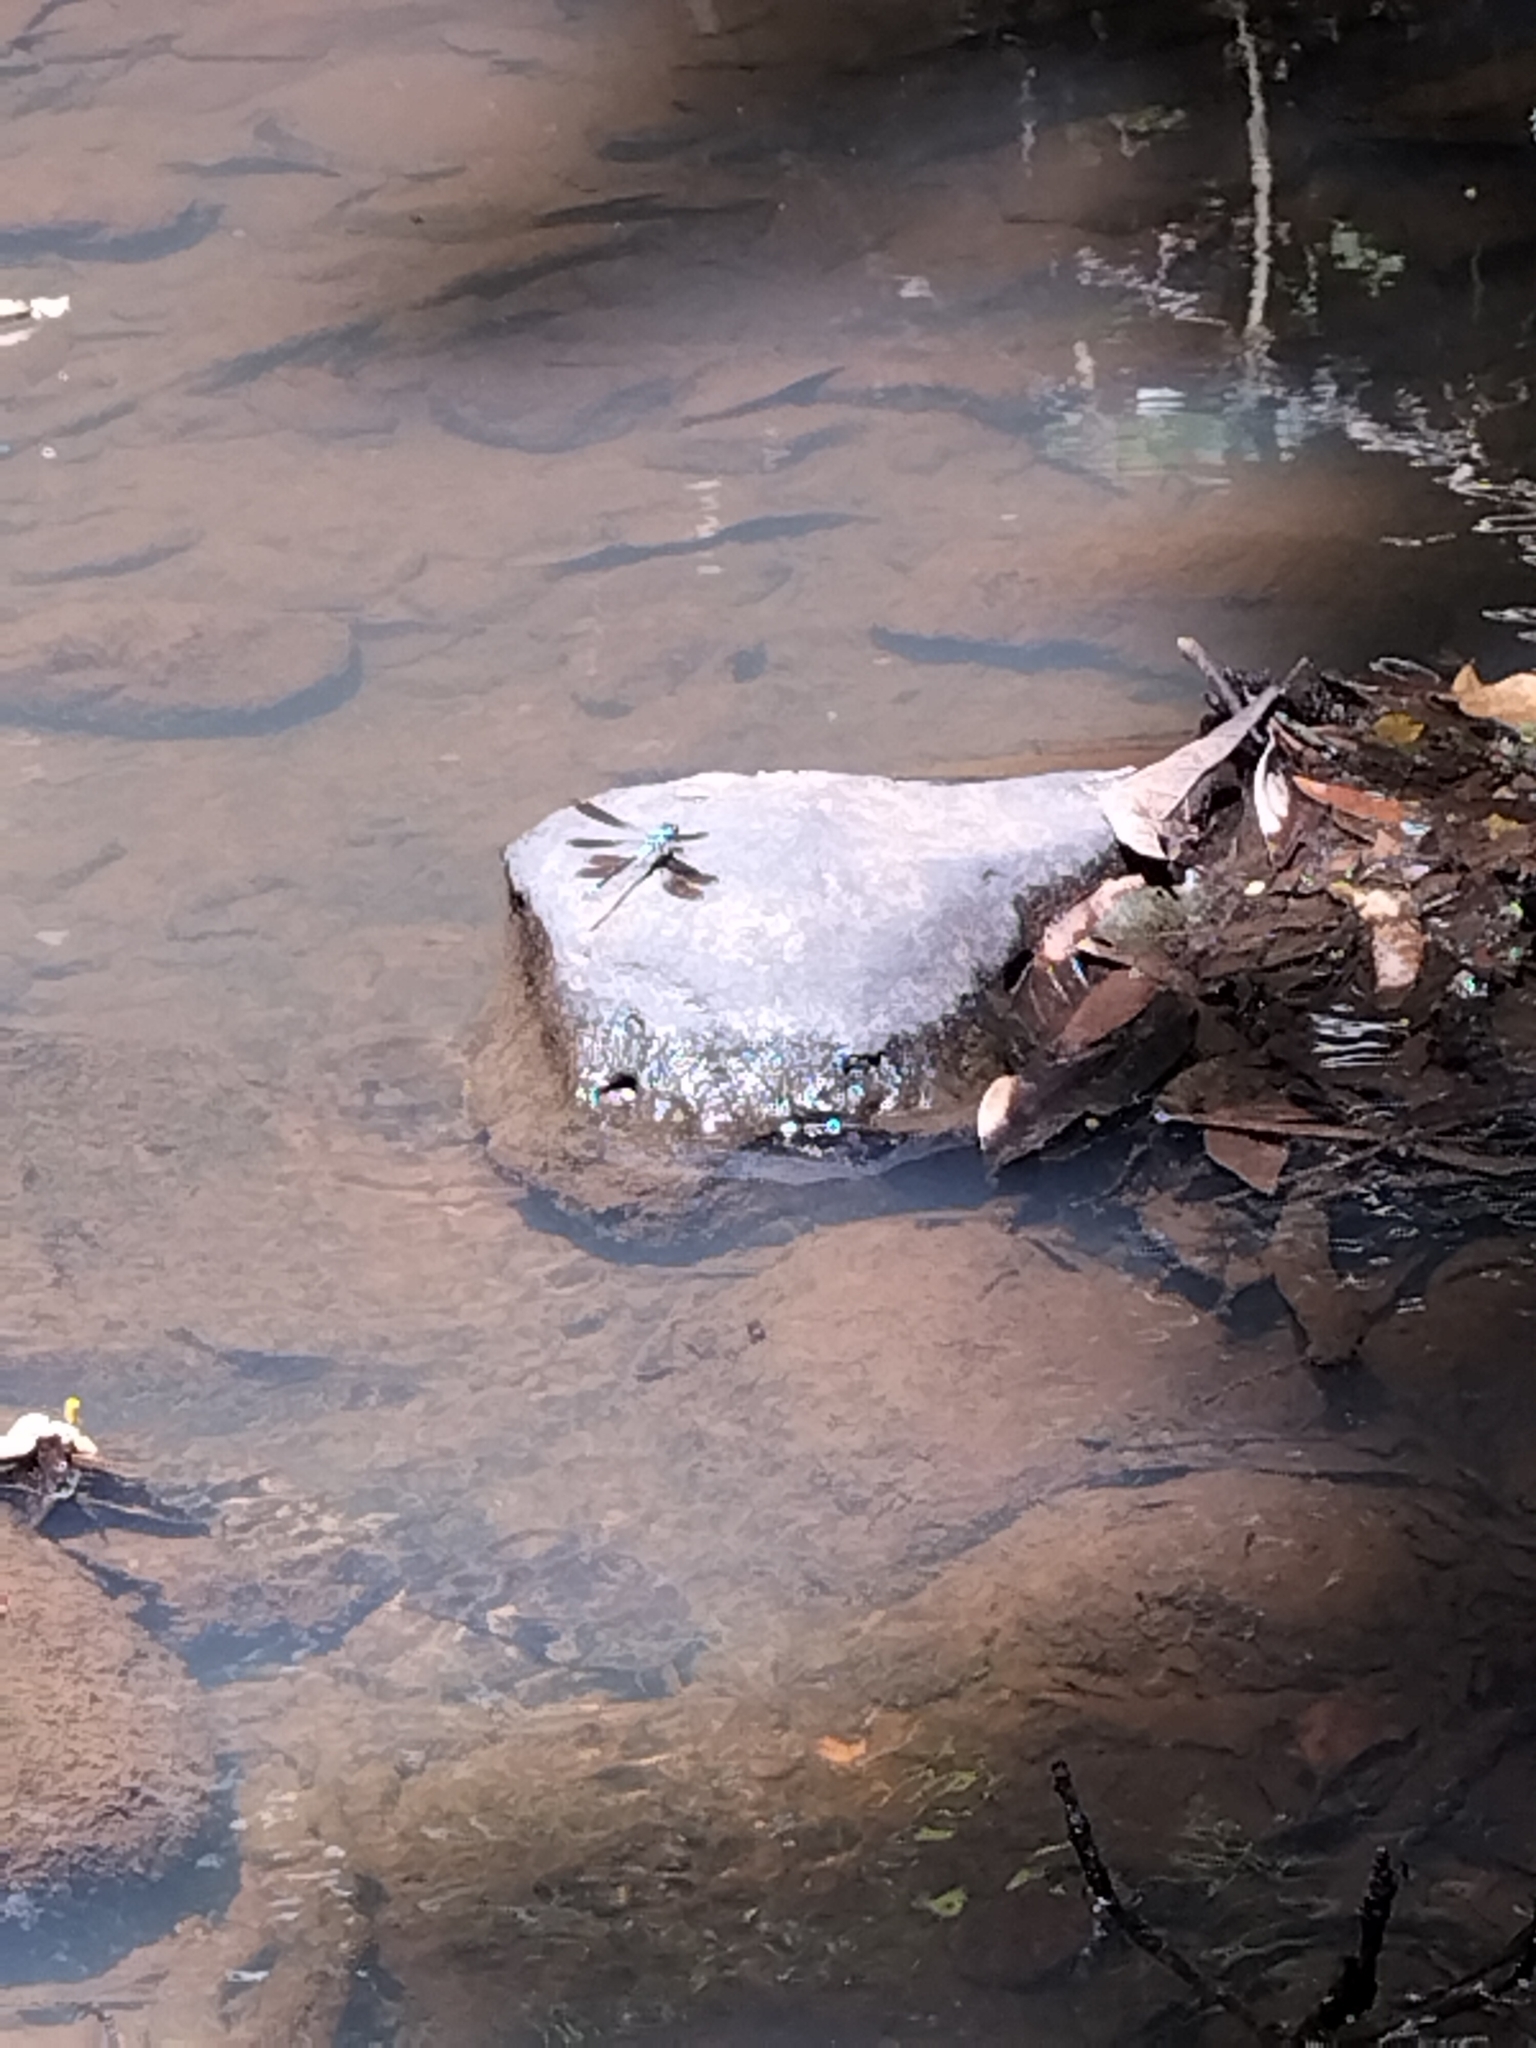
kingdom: Animalia
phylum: Arthropoda
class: Insecta
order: Odonata
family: Lestoideidae
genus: Diphlebia
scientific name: Diphlebia euphoeoides
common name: Tropical rockmaster
